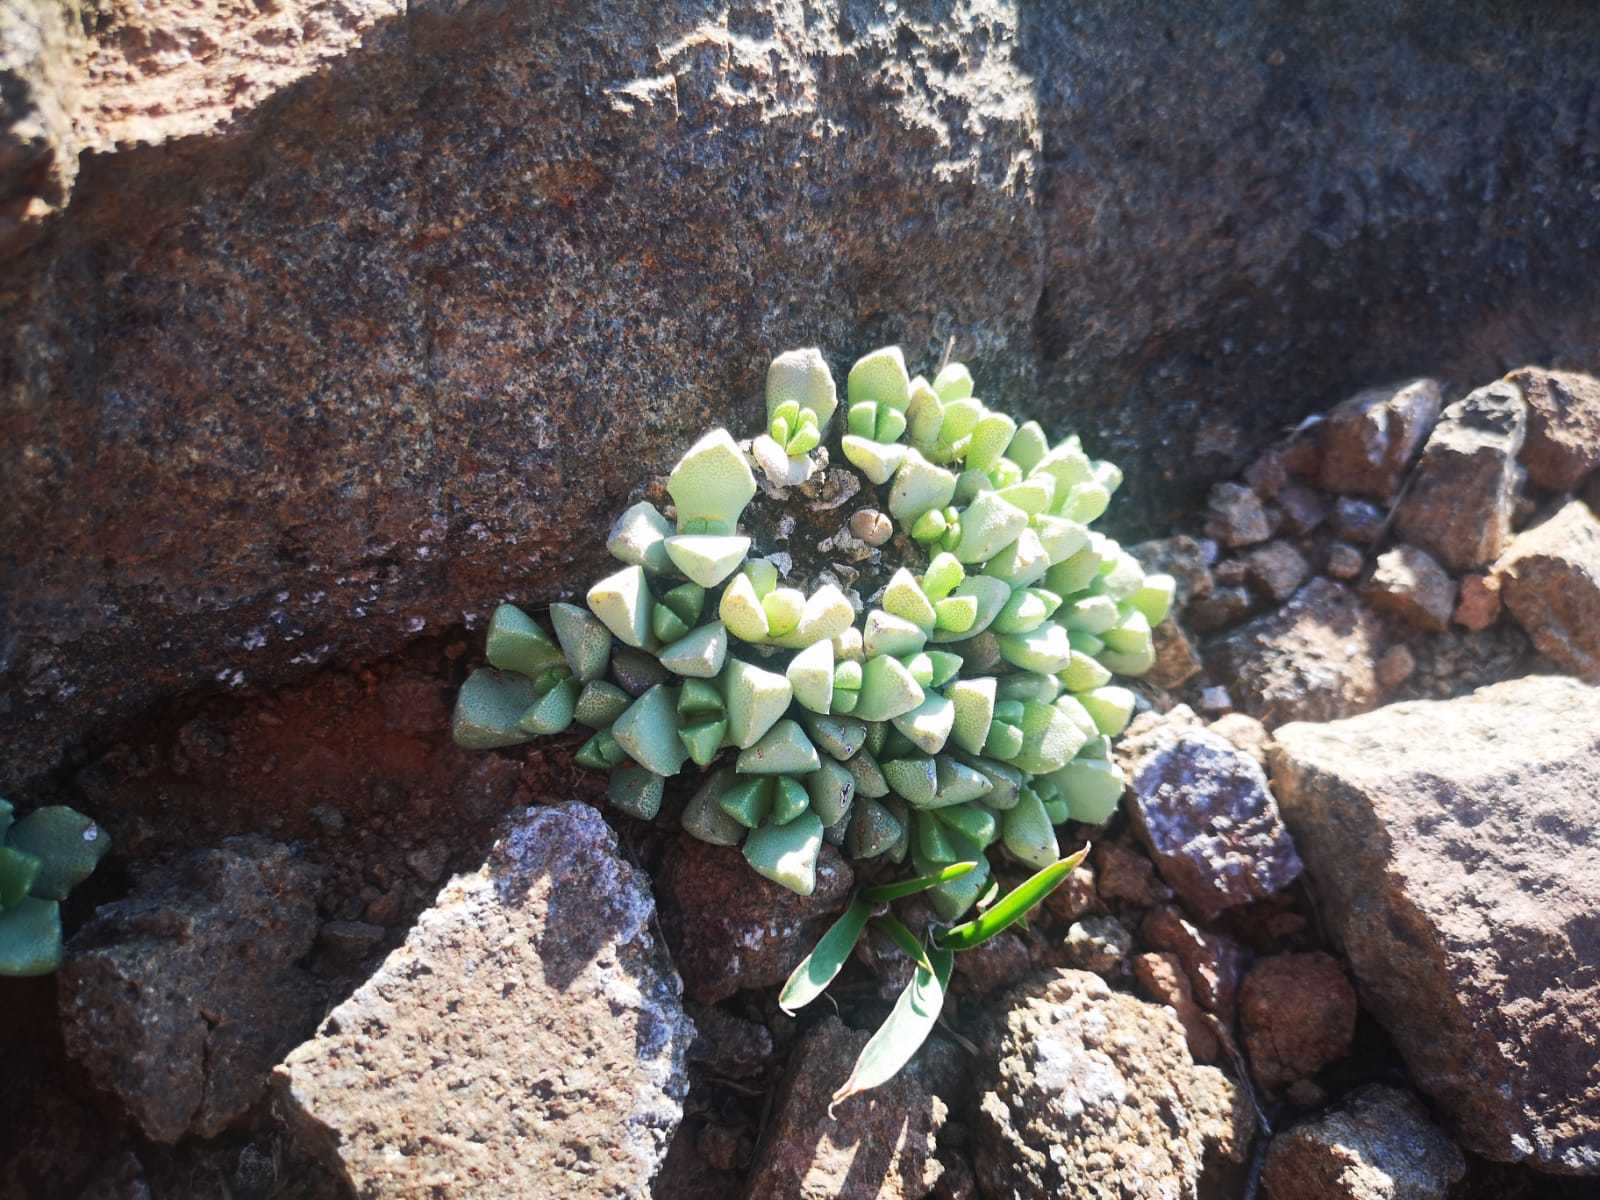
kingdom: Plantae
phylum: Tracheophyta
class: Magnoliopsida
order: Caryophyllales
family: Aizoaceae
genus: Stomatium
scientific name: Stomatium meyeri
